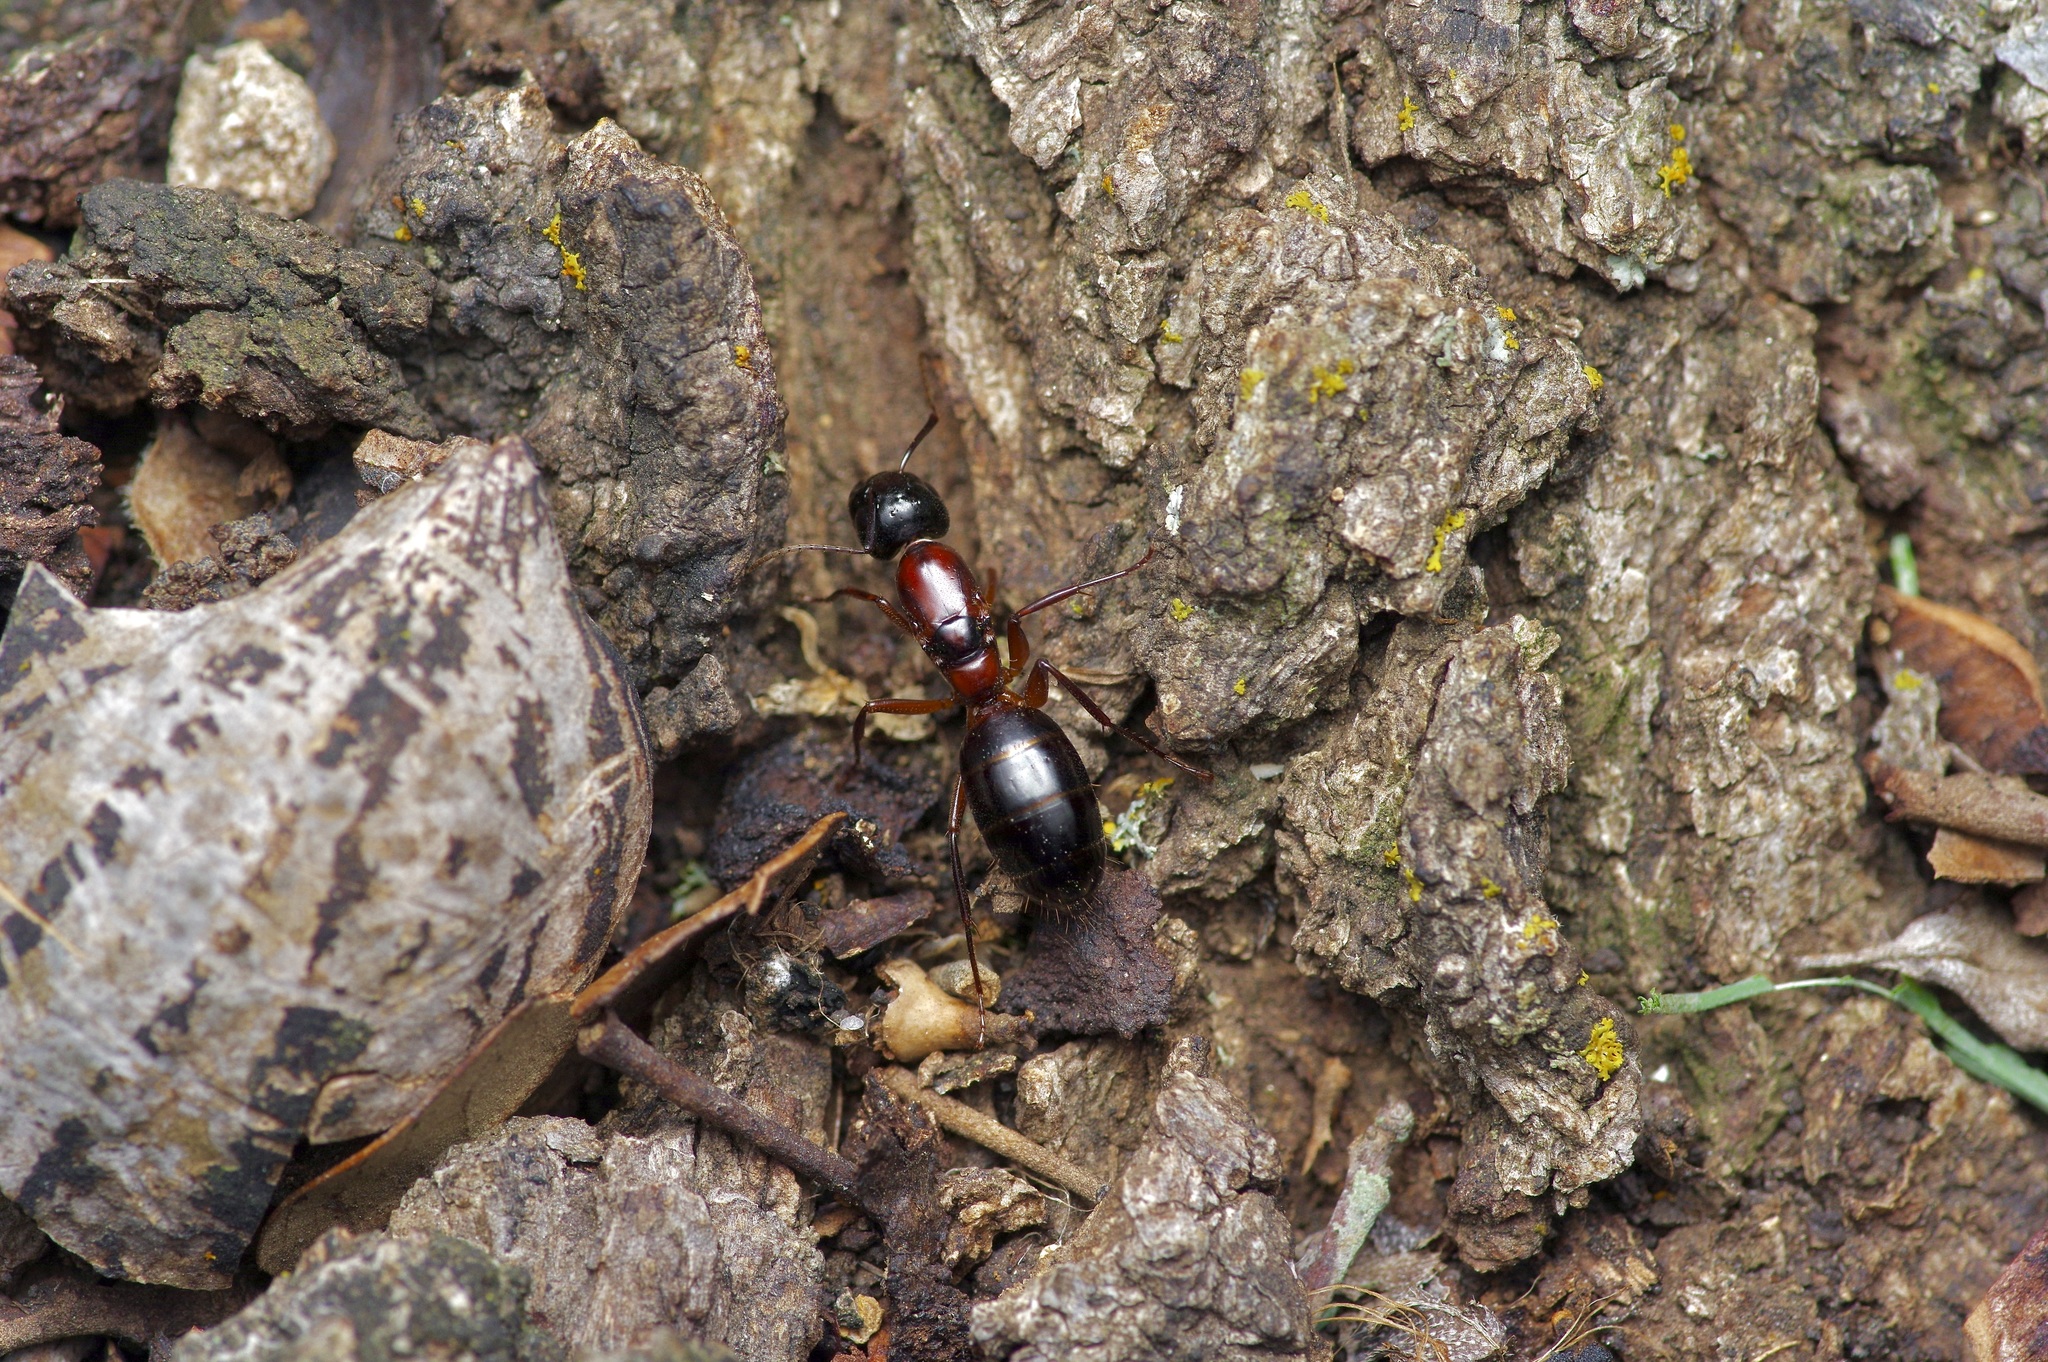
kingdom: Animalia
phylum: Arthropoda
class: Insecta
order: Hymenoptera
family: Formicidae
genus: Camponotus
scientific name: Camponotus texanus
